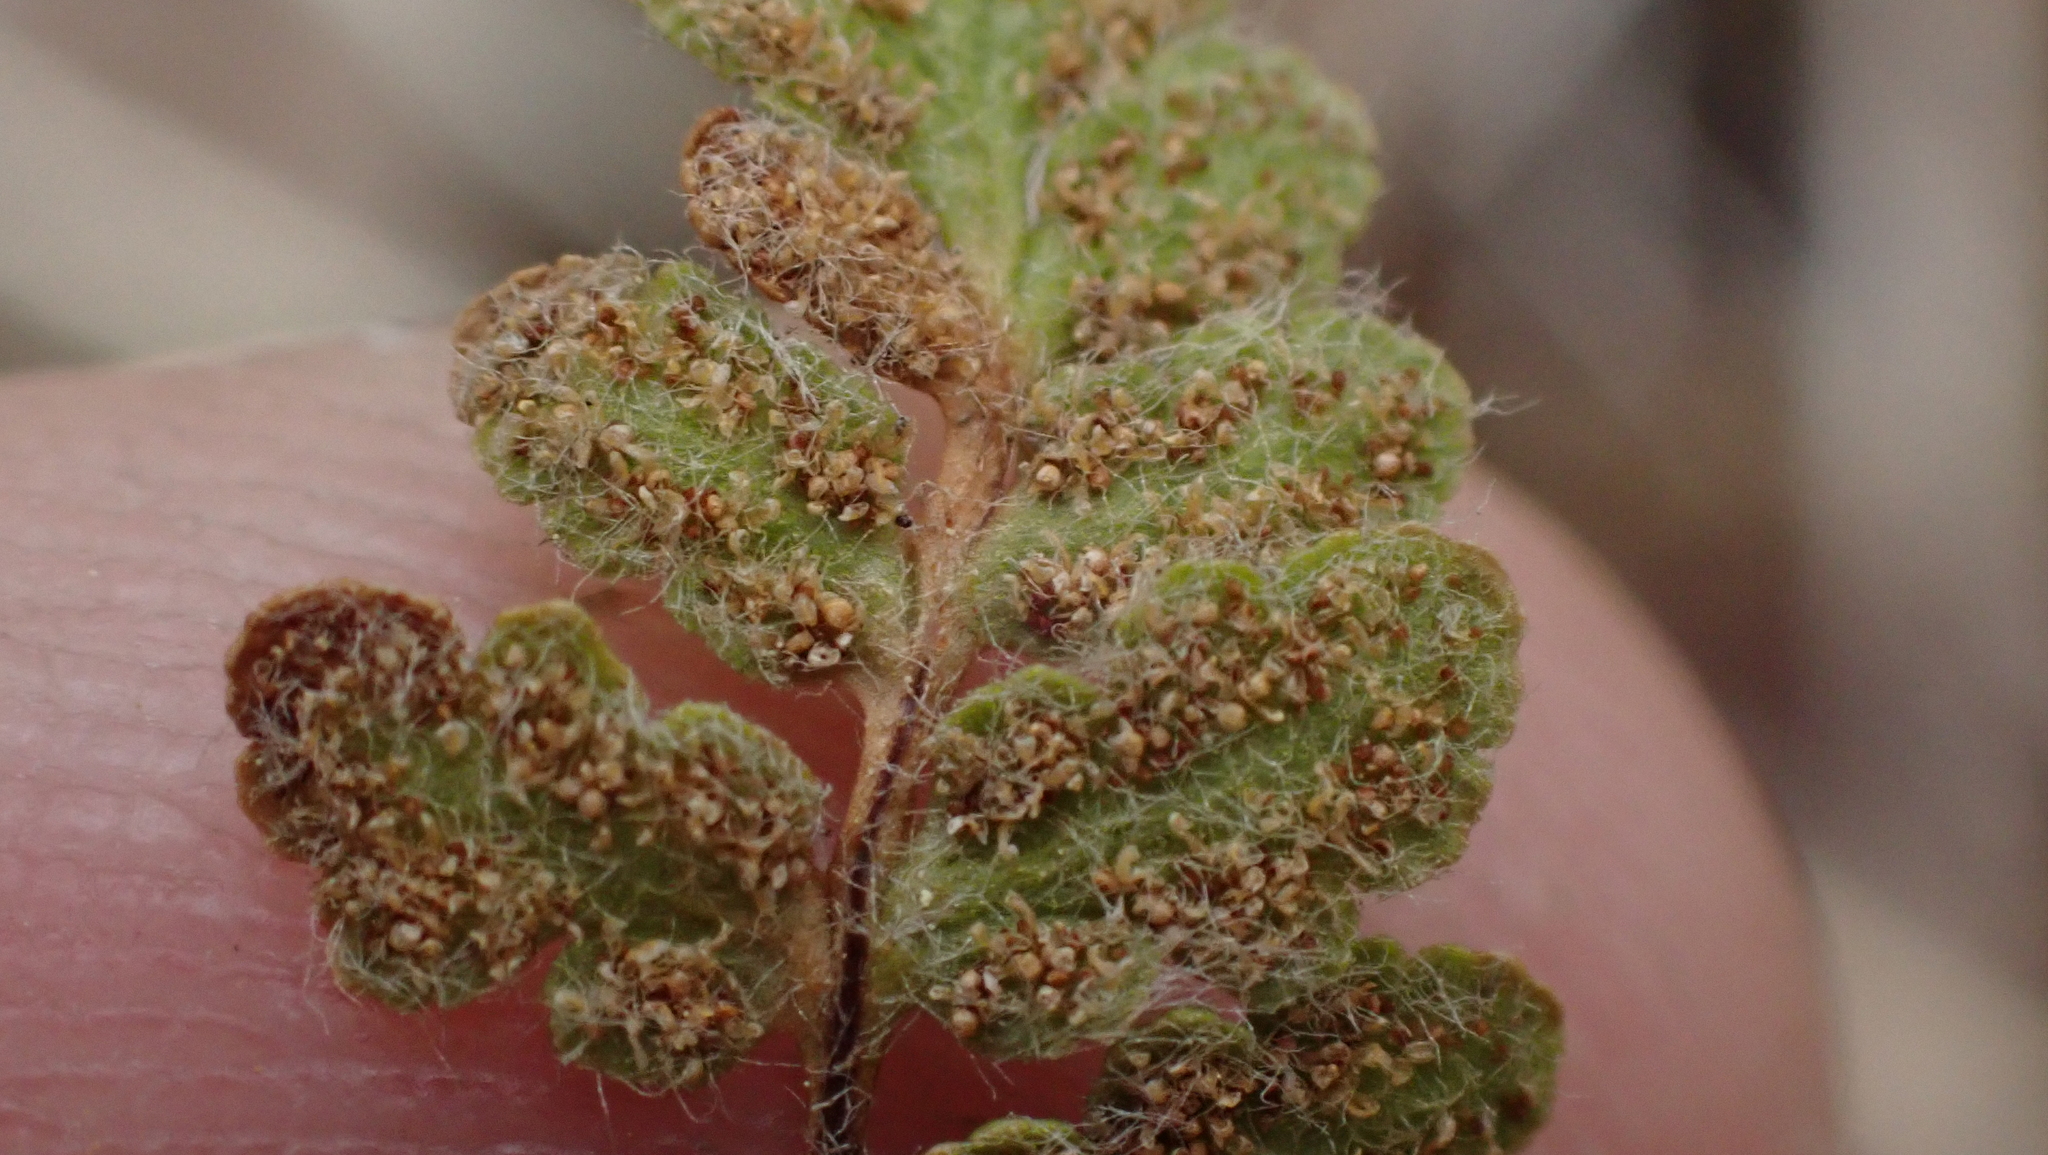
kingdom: Plantae
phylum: Tracheophyta
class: Polypodiopsida
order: Polypodiales
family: Pteridaceae
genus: Myriopteris
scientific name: Myriopteris lanosa
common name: Hairy lip fern
